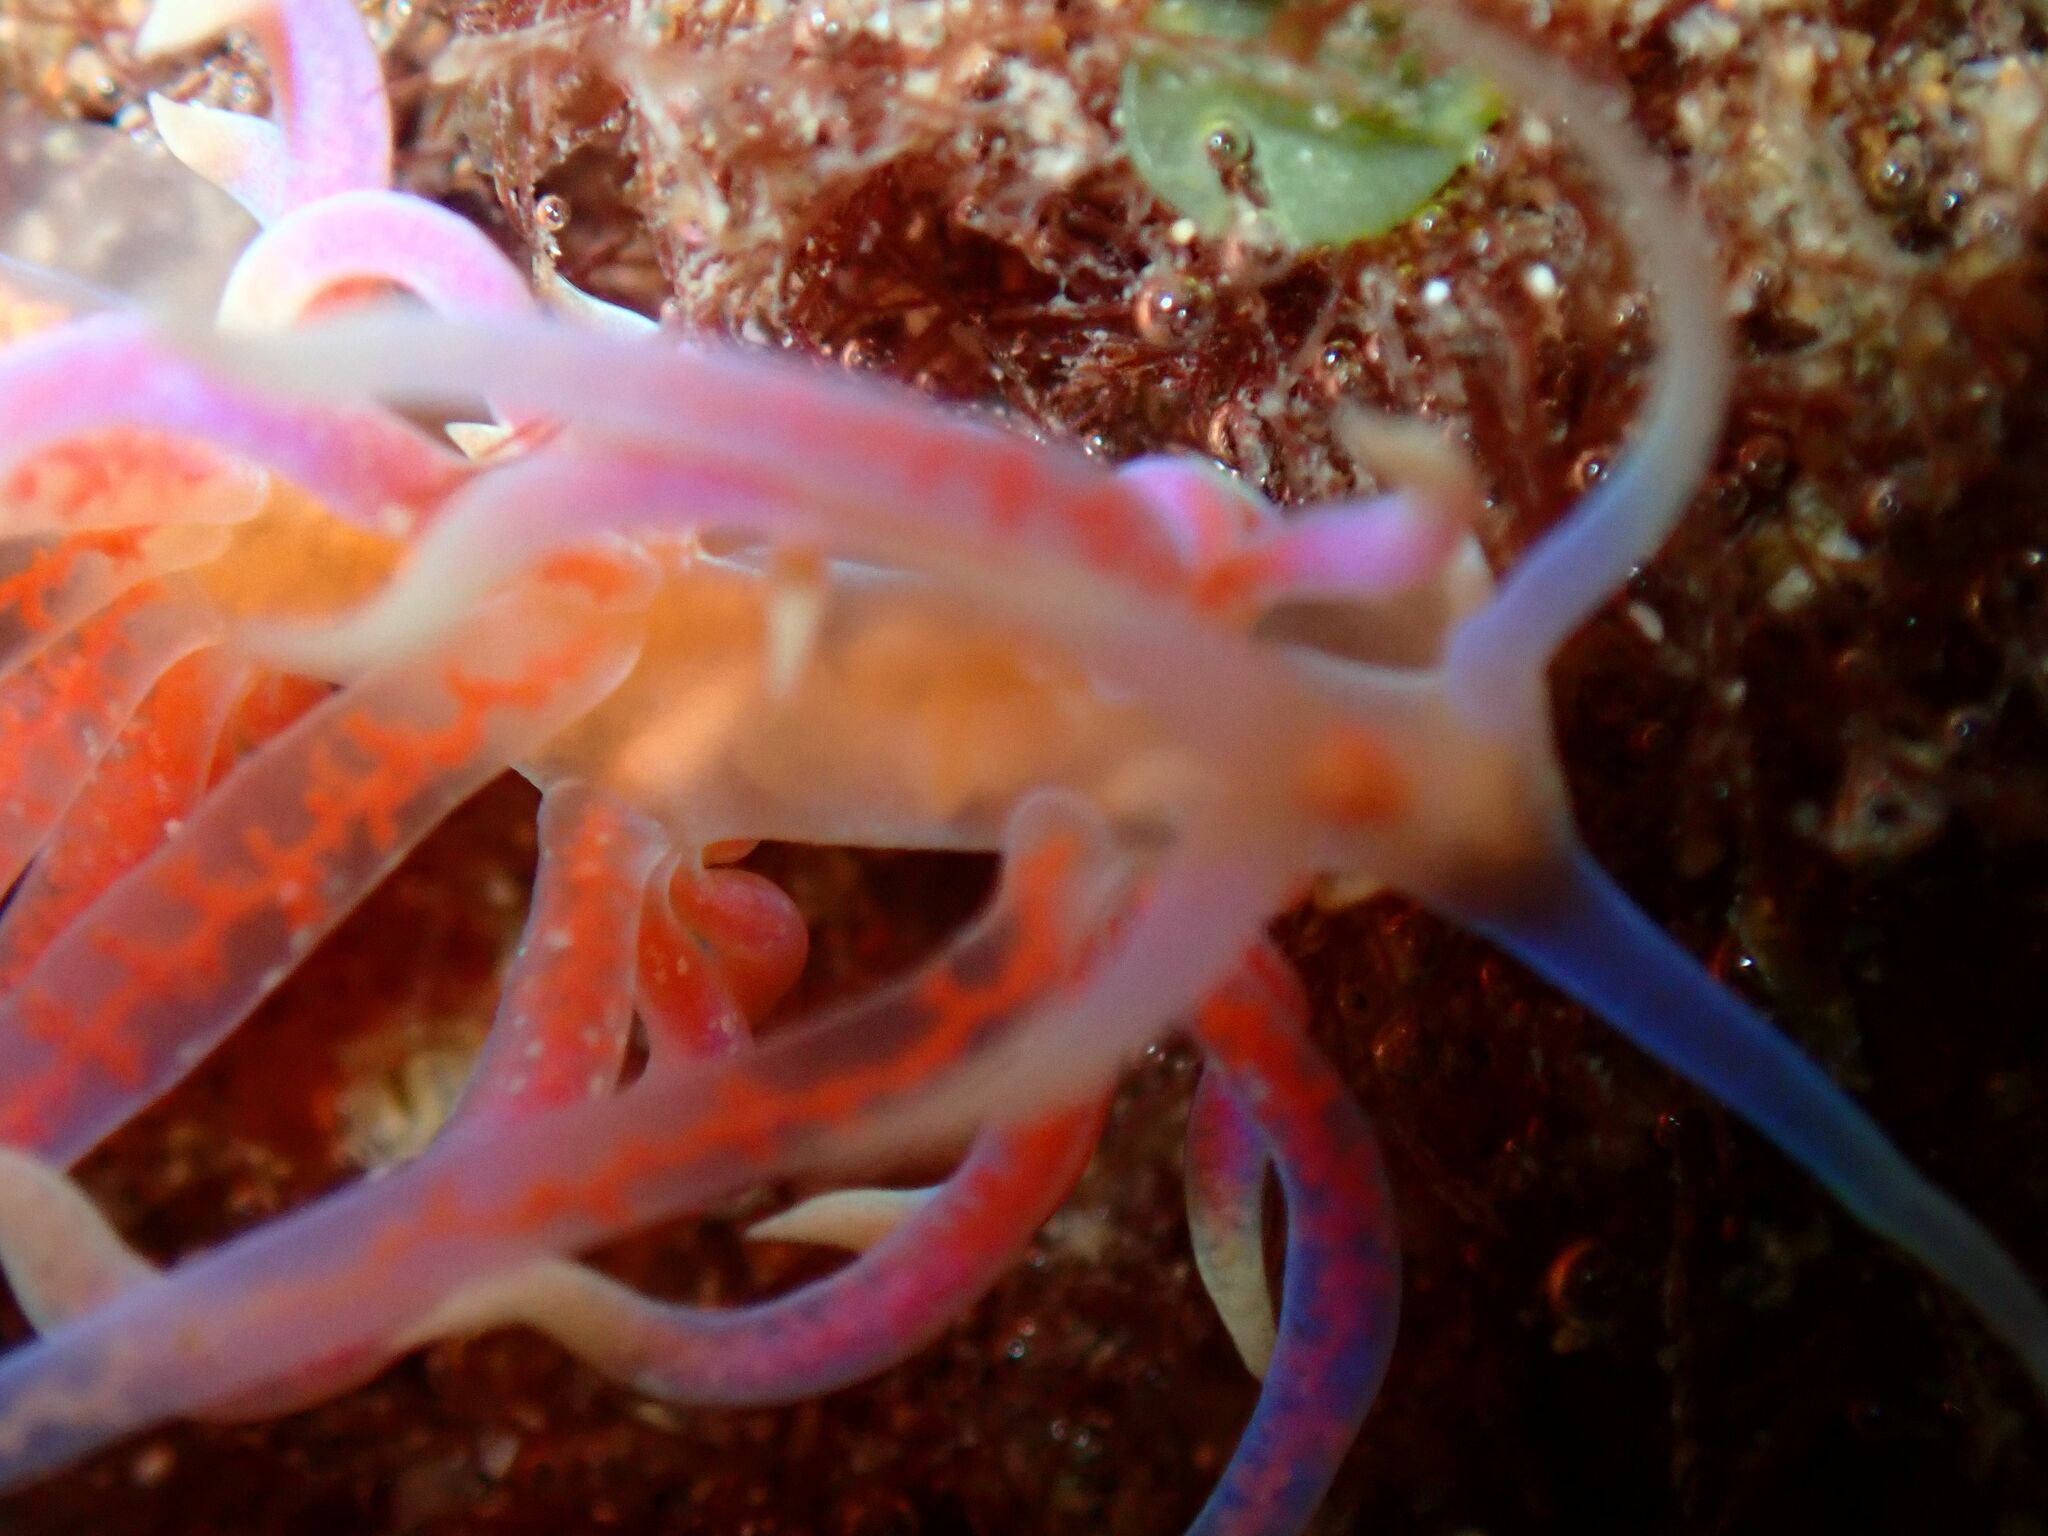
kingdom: Animalia
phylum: Mollusca
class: Gastropoda
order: Nudibranchia
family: Myrrhinidae
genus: Phyllodesmium
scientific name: Phyllodesmium poindimiei
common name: Sea slug
